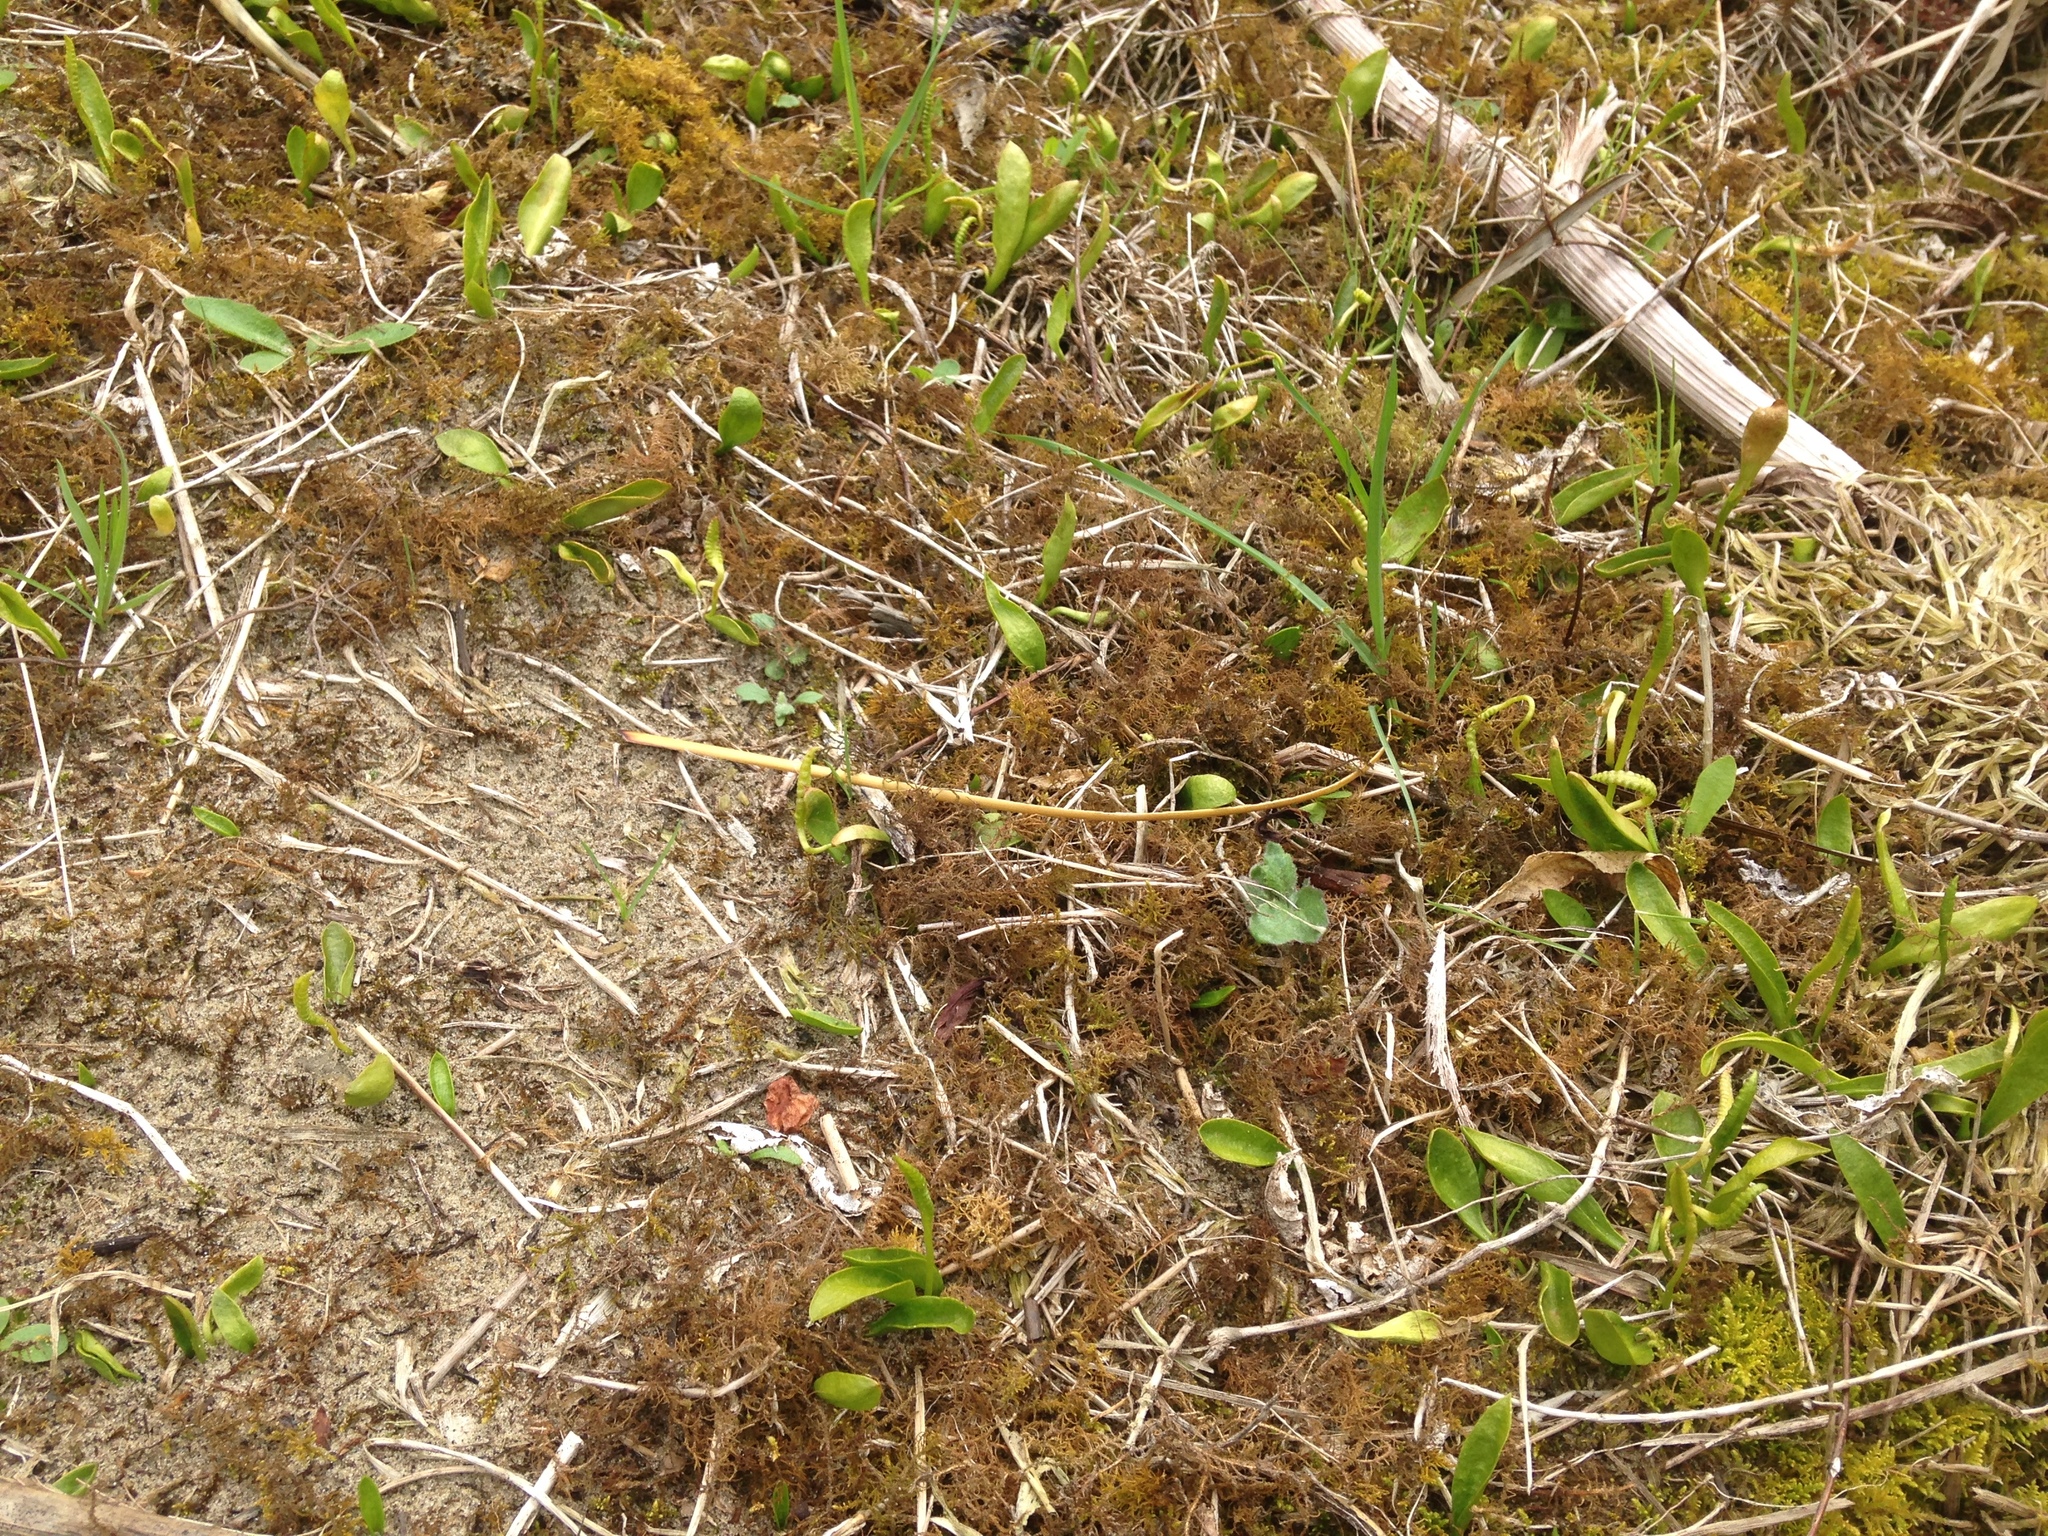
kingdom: Plantae
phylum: Tracheophyta
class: Polypodiopsida
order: Ophioglossales
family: Ophioglossaceae
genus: Ophioglossum
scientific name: Ophioglossum coriaceum
